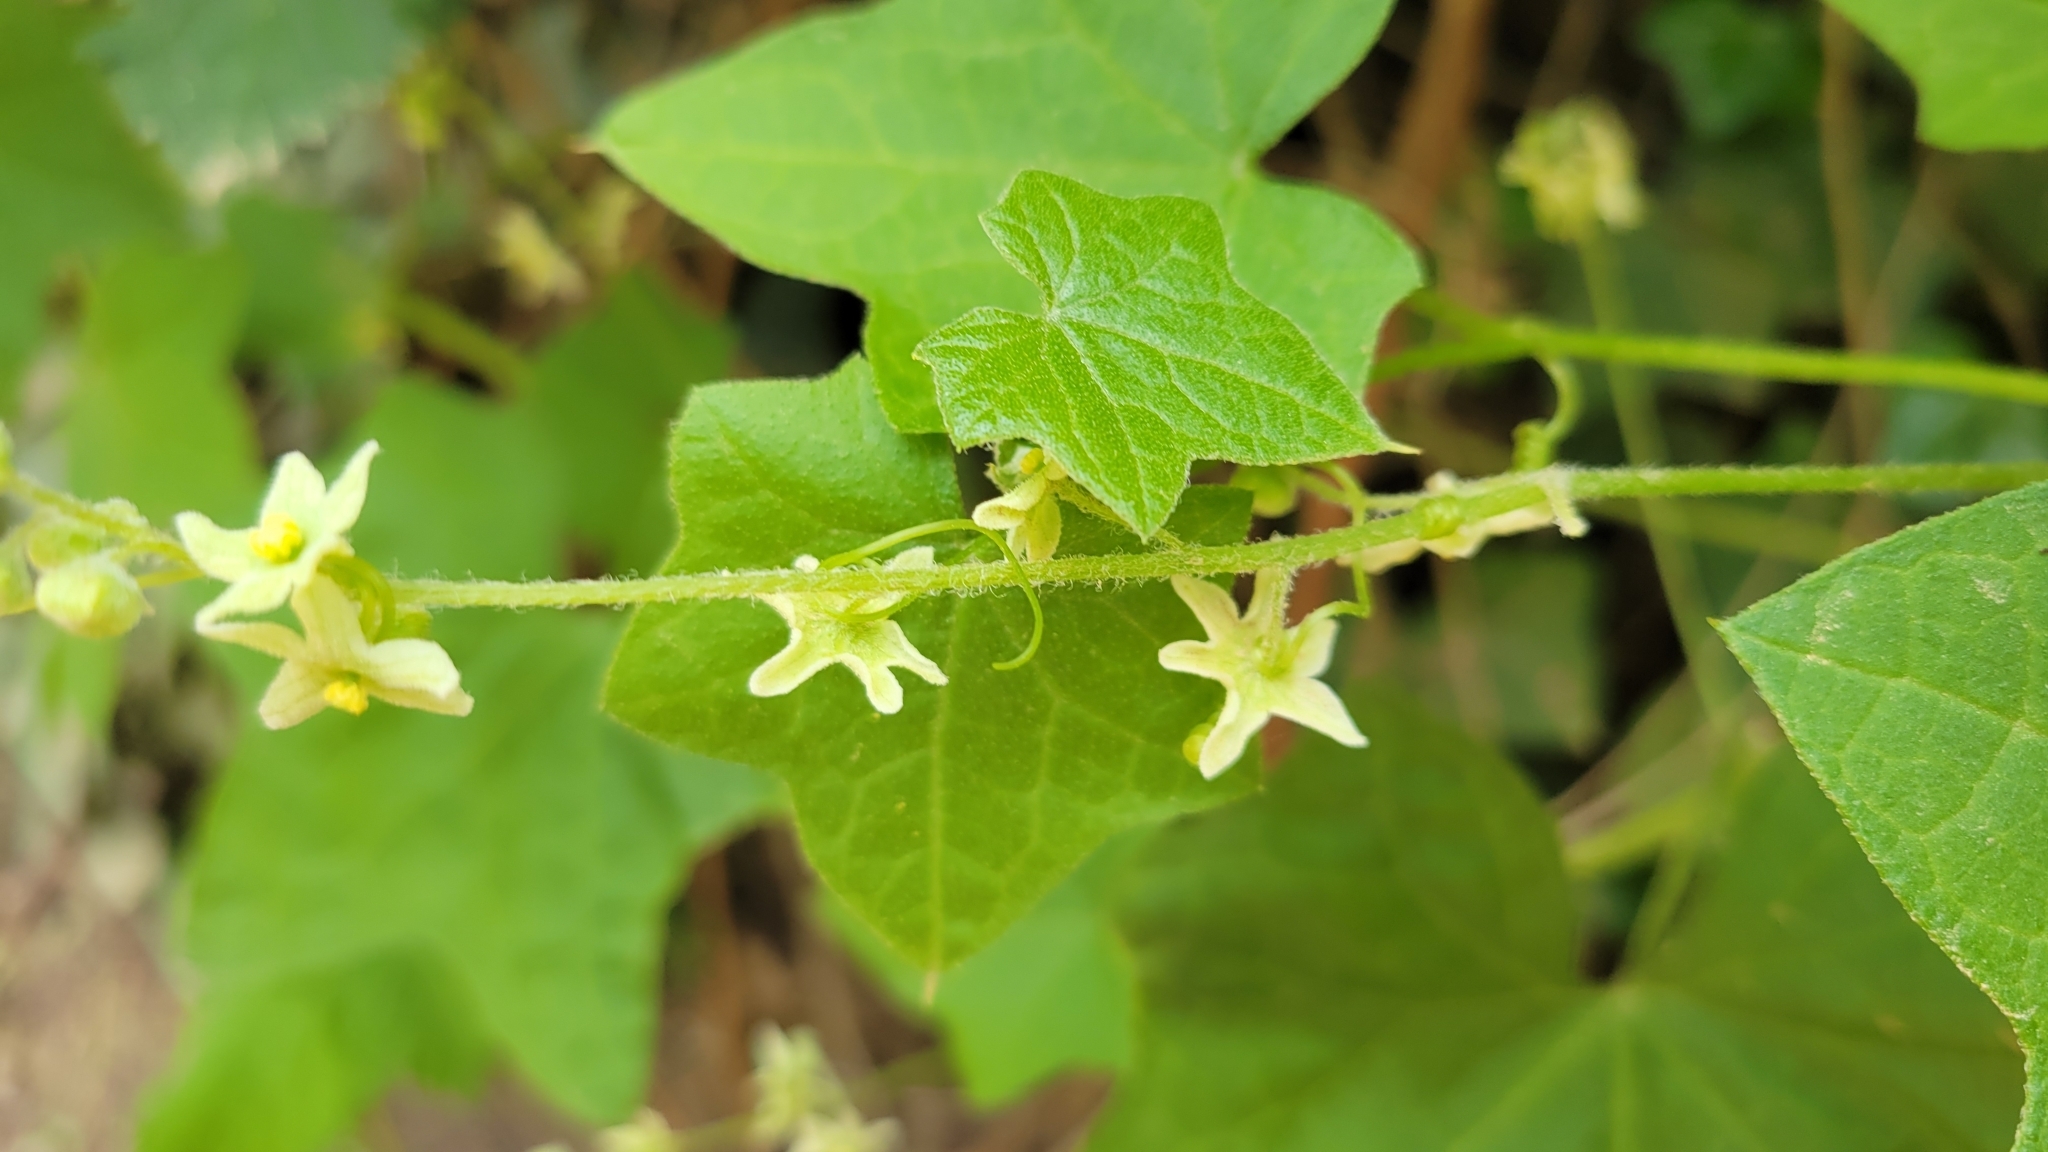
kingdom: Plantae
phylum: Tracheophyta
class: Magnoliopsida
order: Cucurbitales
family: Cucurbitaceae
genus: Marah
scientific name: Marah fabacea
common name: California manroot
